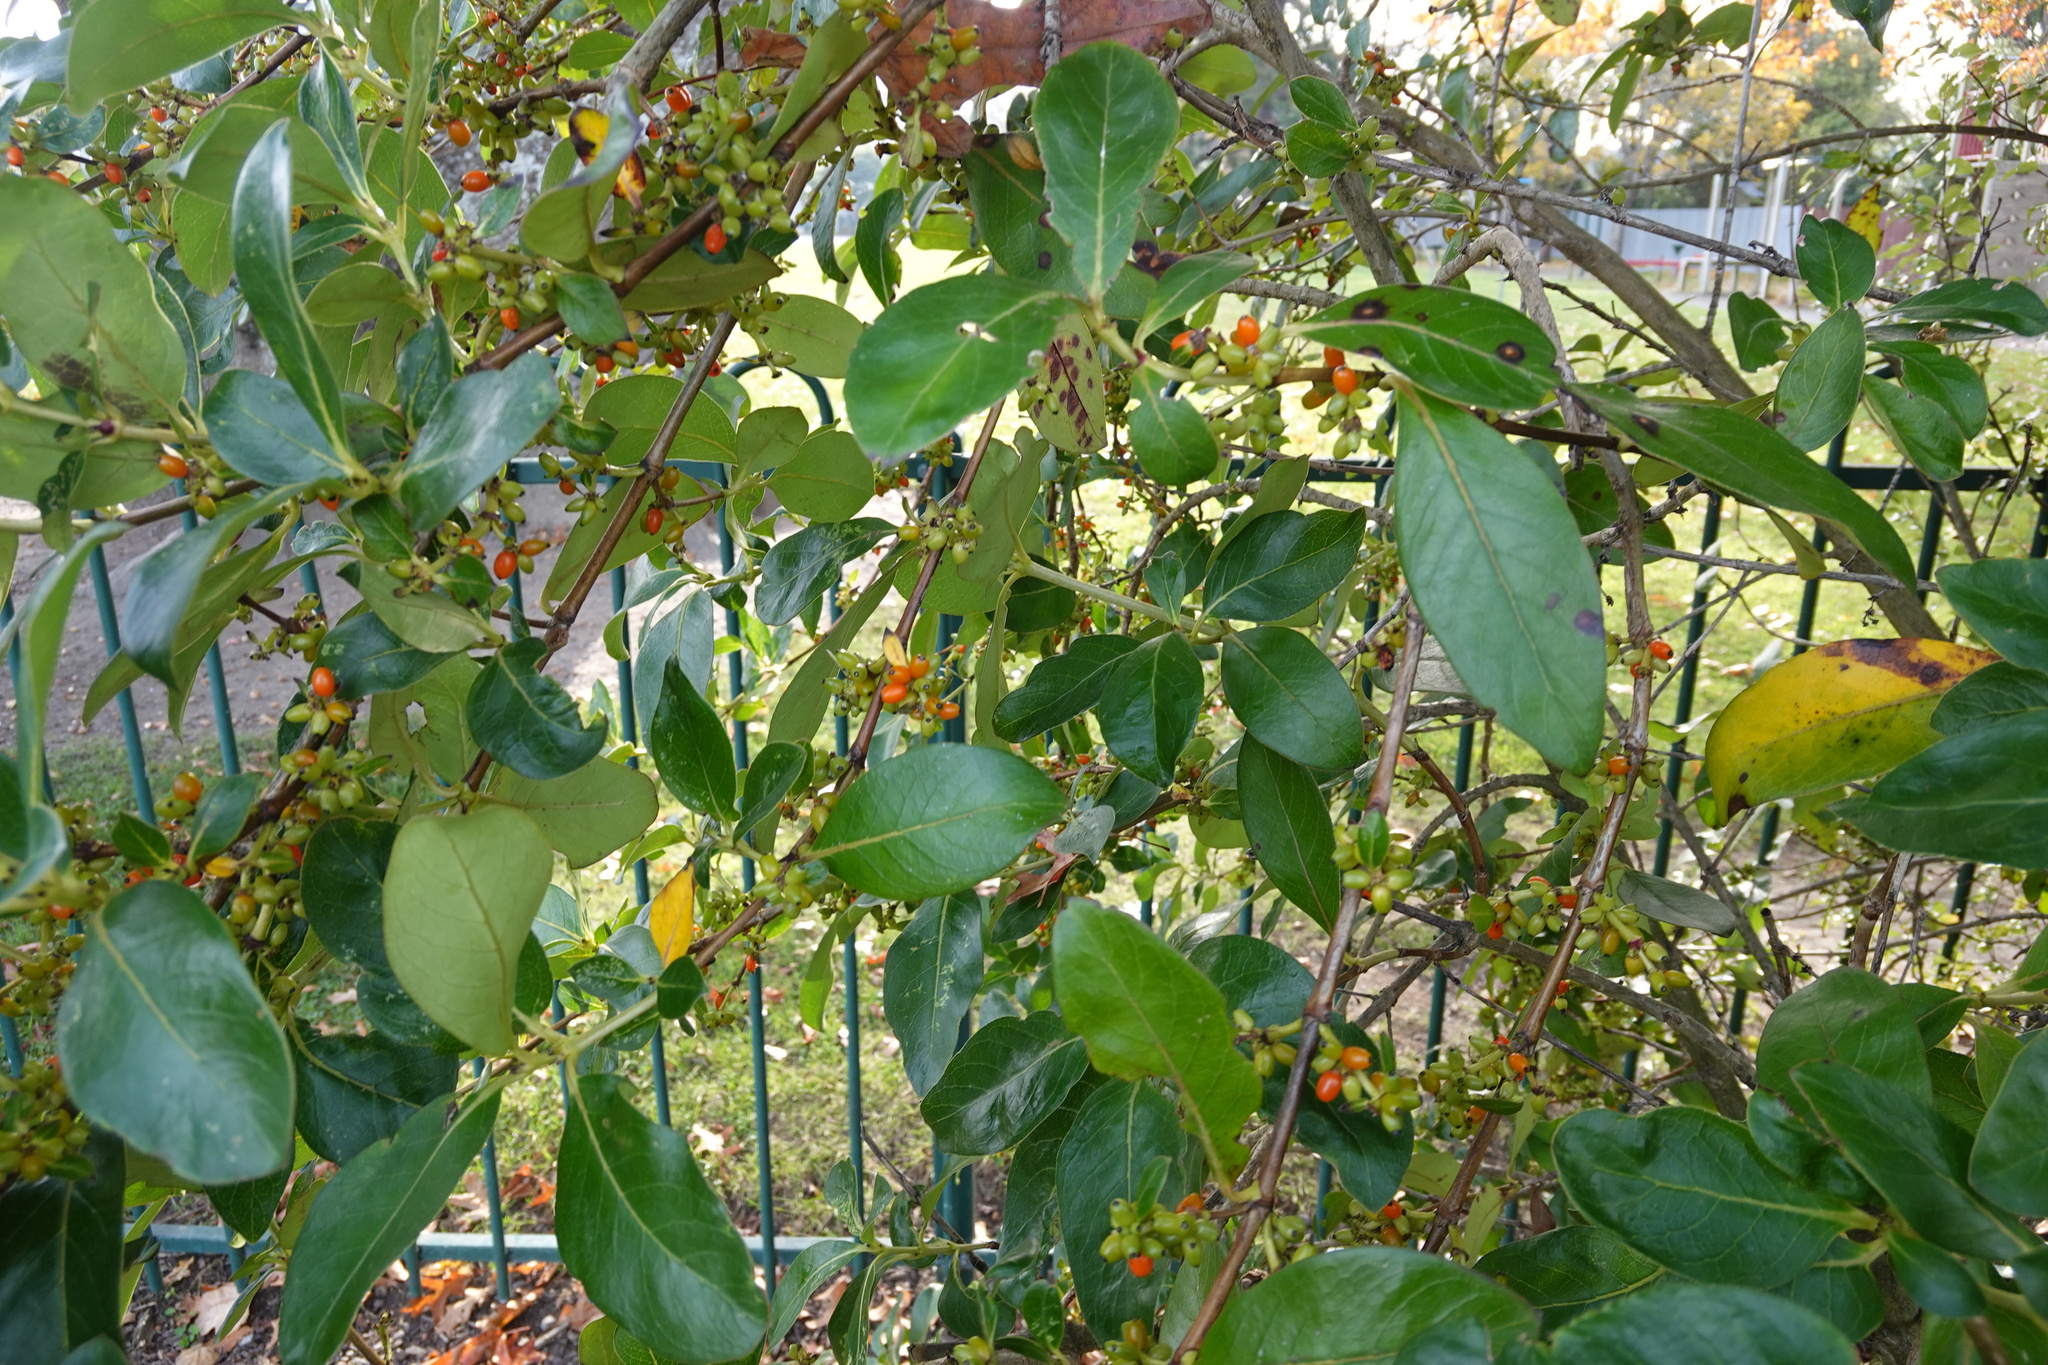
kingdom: Plantae
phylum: Tracheophyta
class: Magnoliopsida
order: Gentianales
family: Rubiaceae
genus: Coprosma
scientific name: Coprosma robusta
